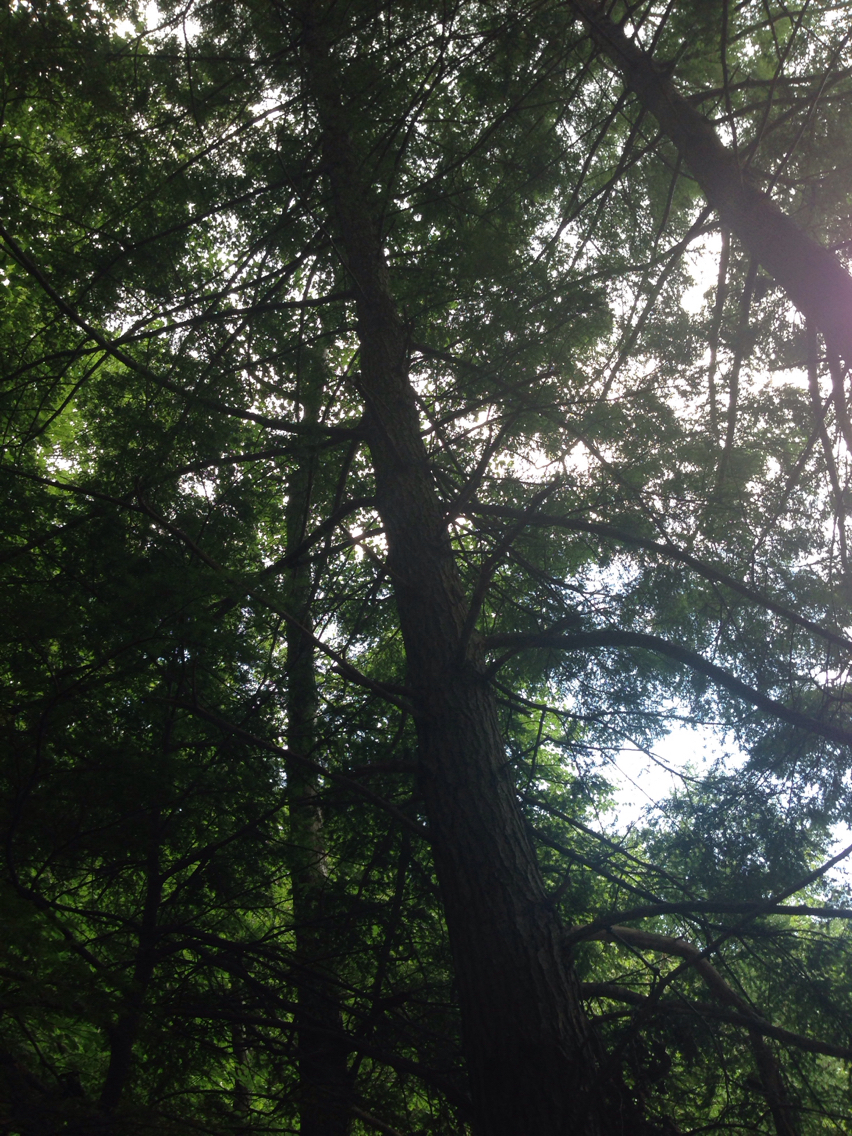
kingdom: Plantae
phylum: Tracheophyta
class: Pinopsida
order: Pinales
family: Pinaceae
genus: Tsuga
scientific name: Tsuga canadensis
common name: Eastern hemlock
